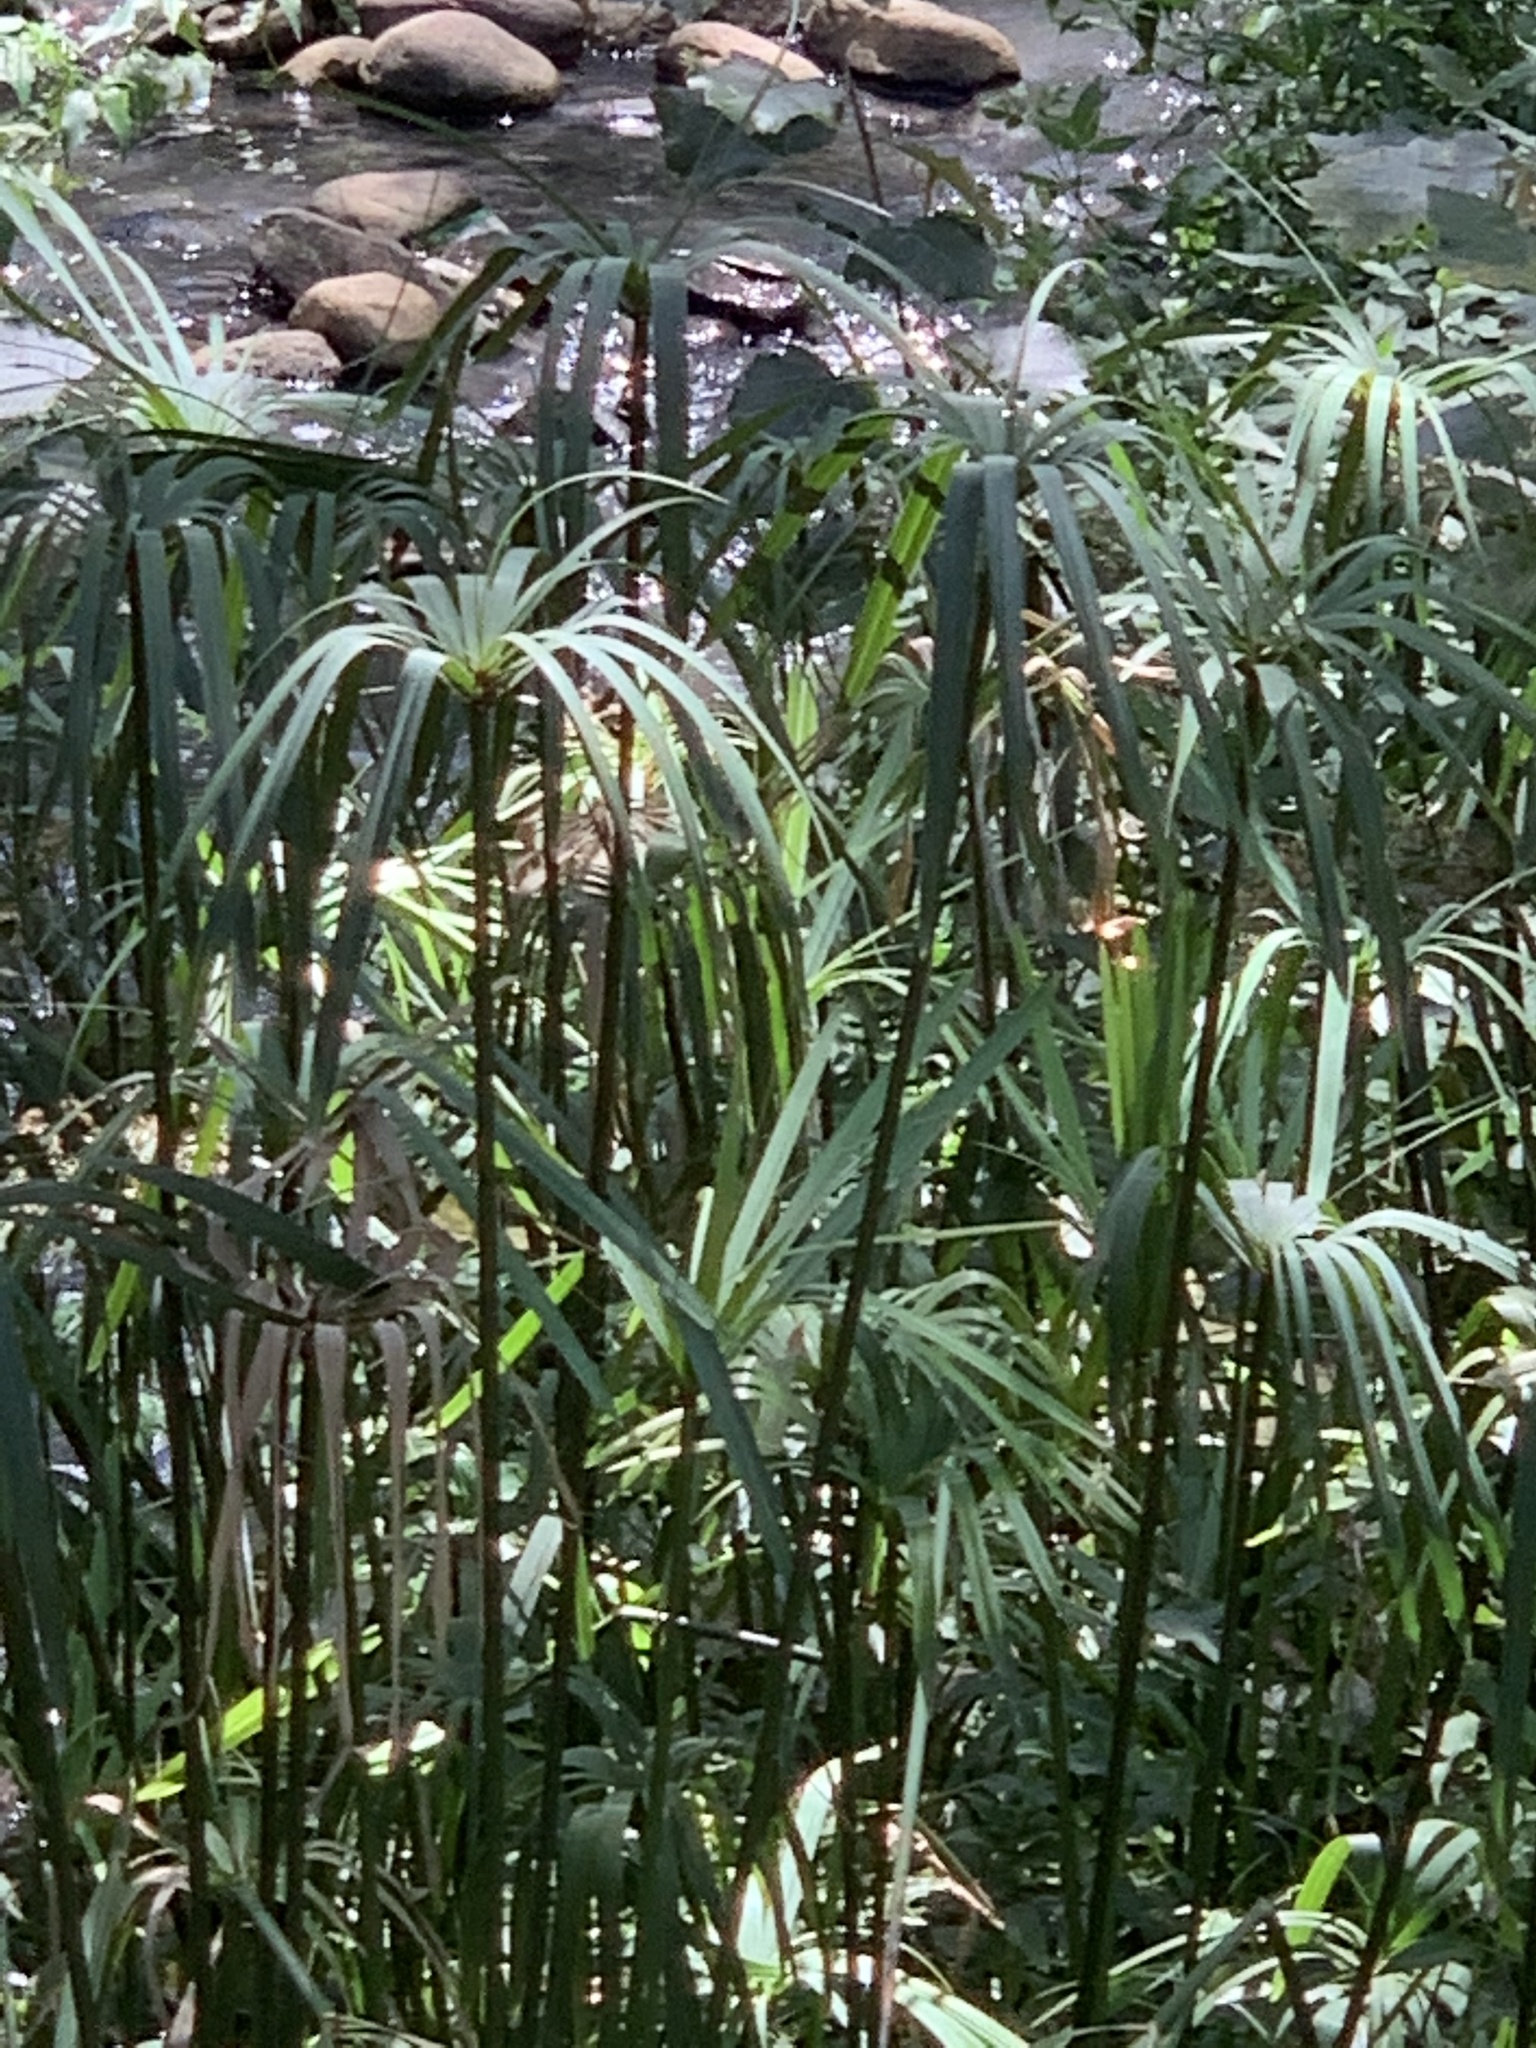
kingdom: Plantae
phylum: Tracheophyta
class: Liliopsida
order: Poales
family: Cyperaceae
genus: Cyperus
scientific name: Cyperus textilis
